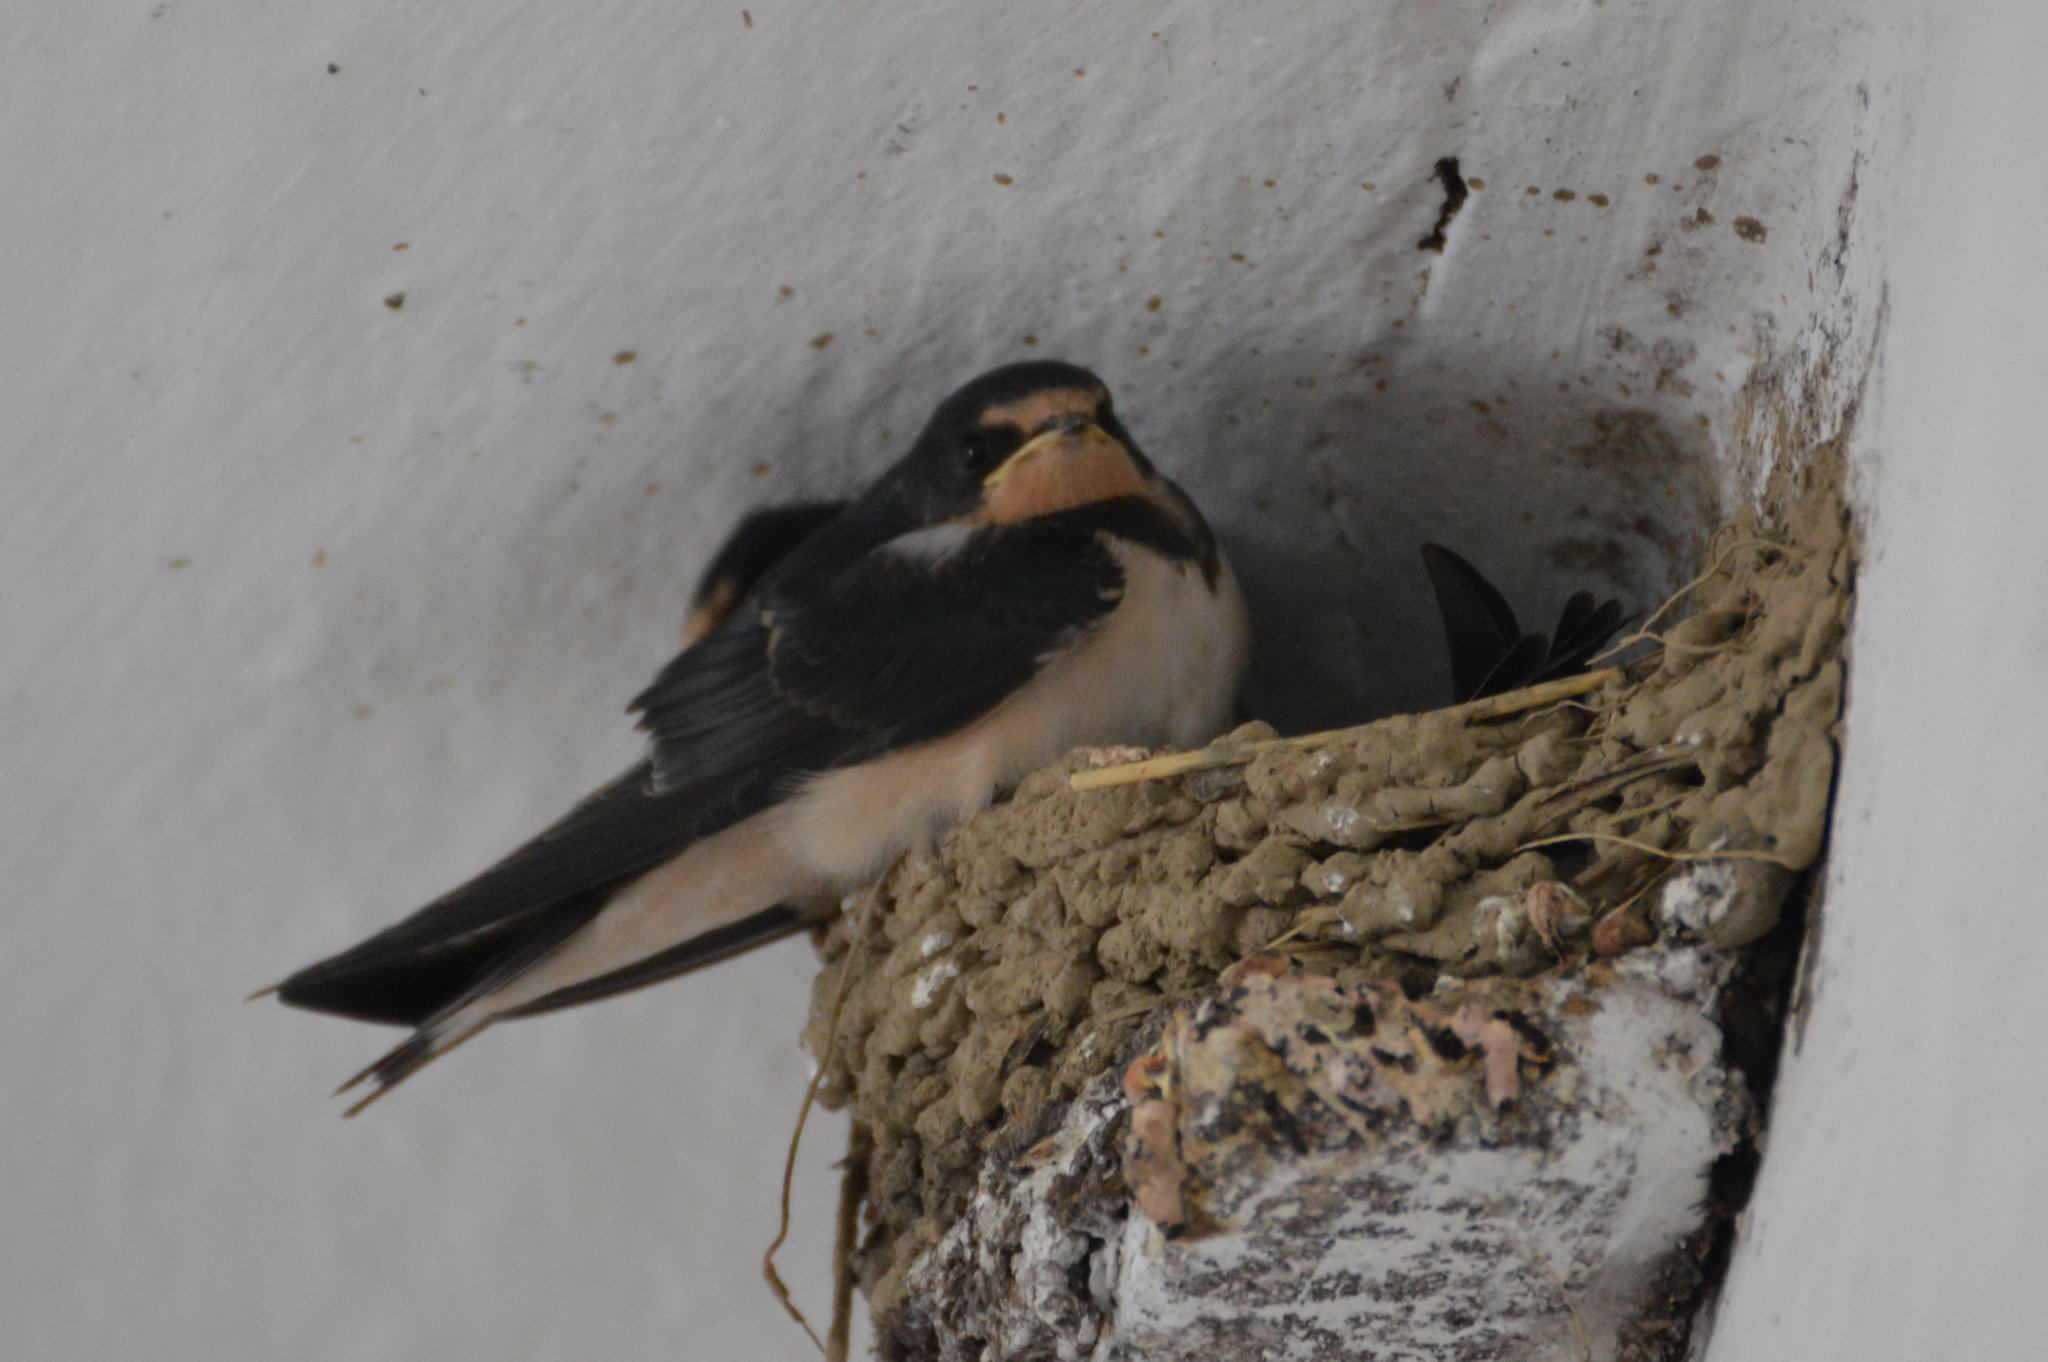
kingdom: Animalia
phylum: Chordata
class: Aves
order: Passeriformes
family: Hirundinidae
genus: Hirundo
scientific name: Hirundo rustica
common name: Barn swallow
